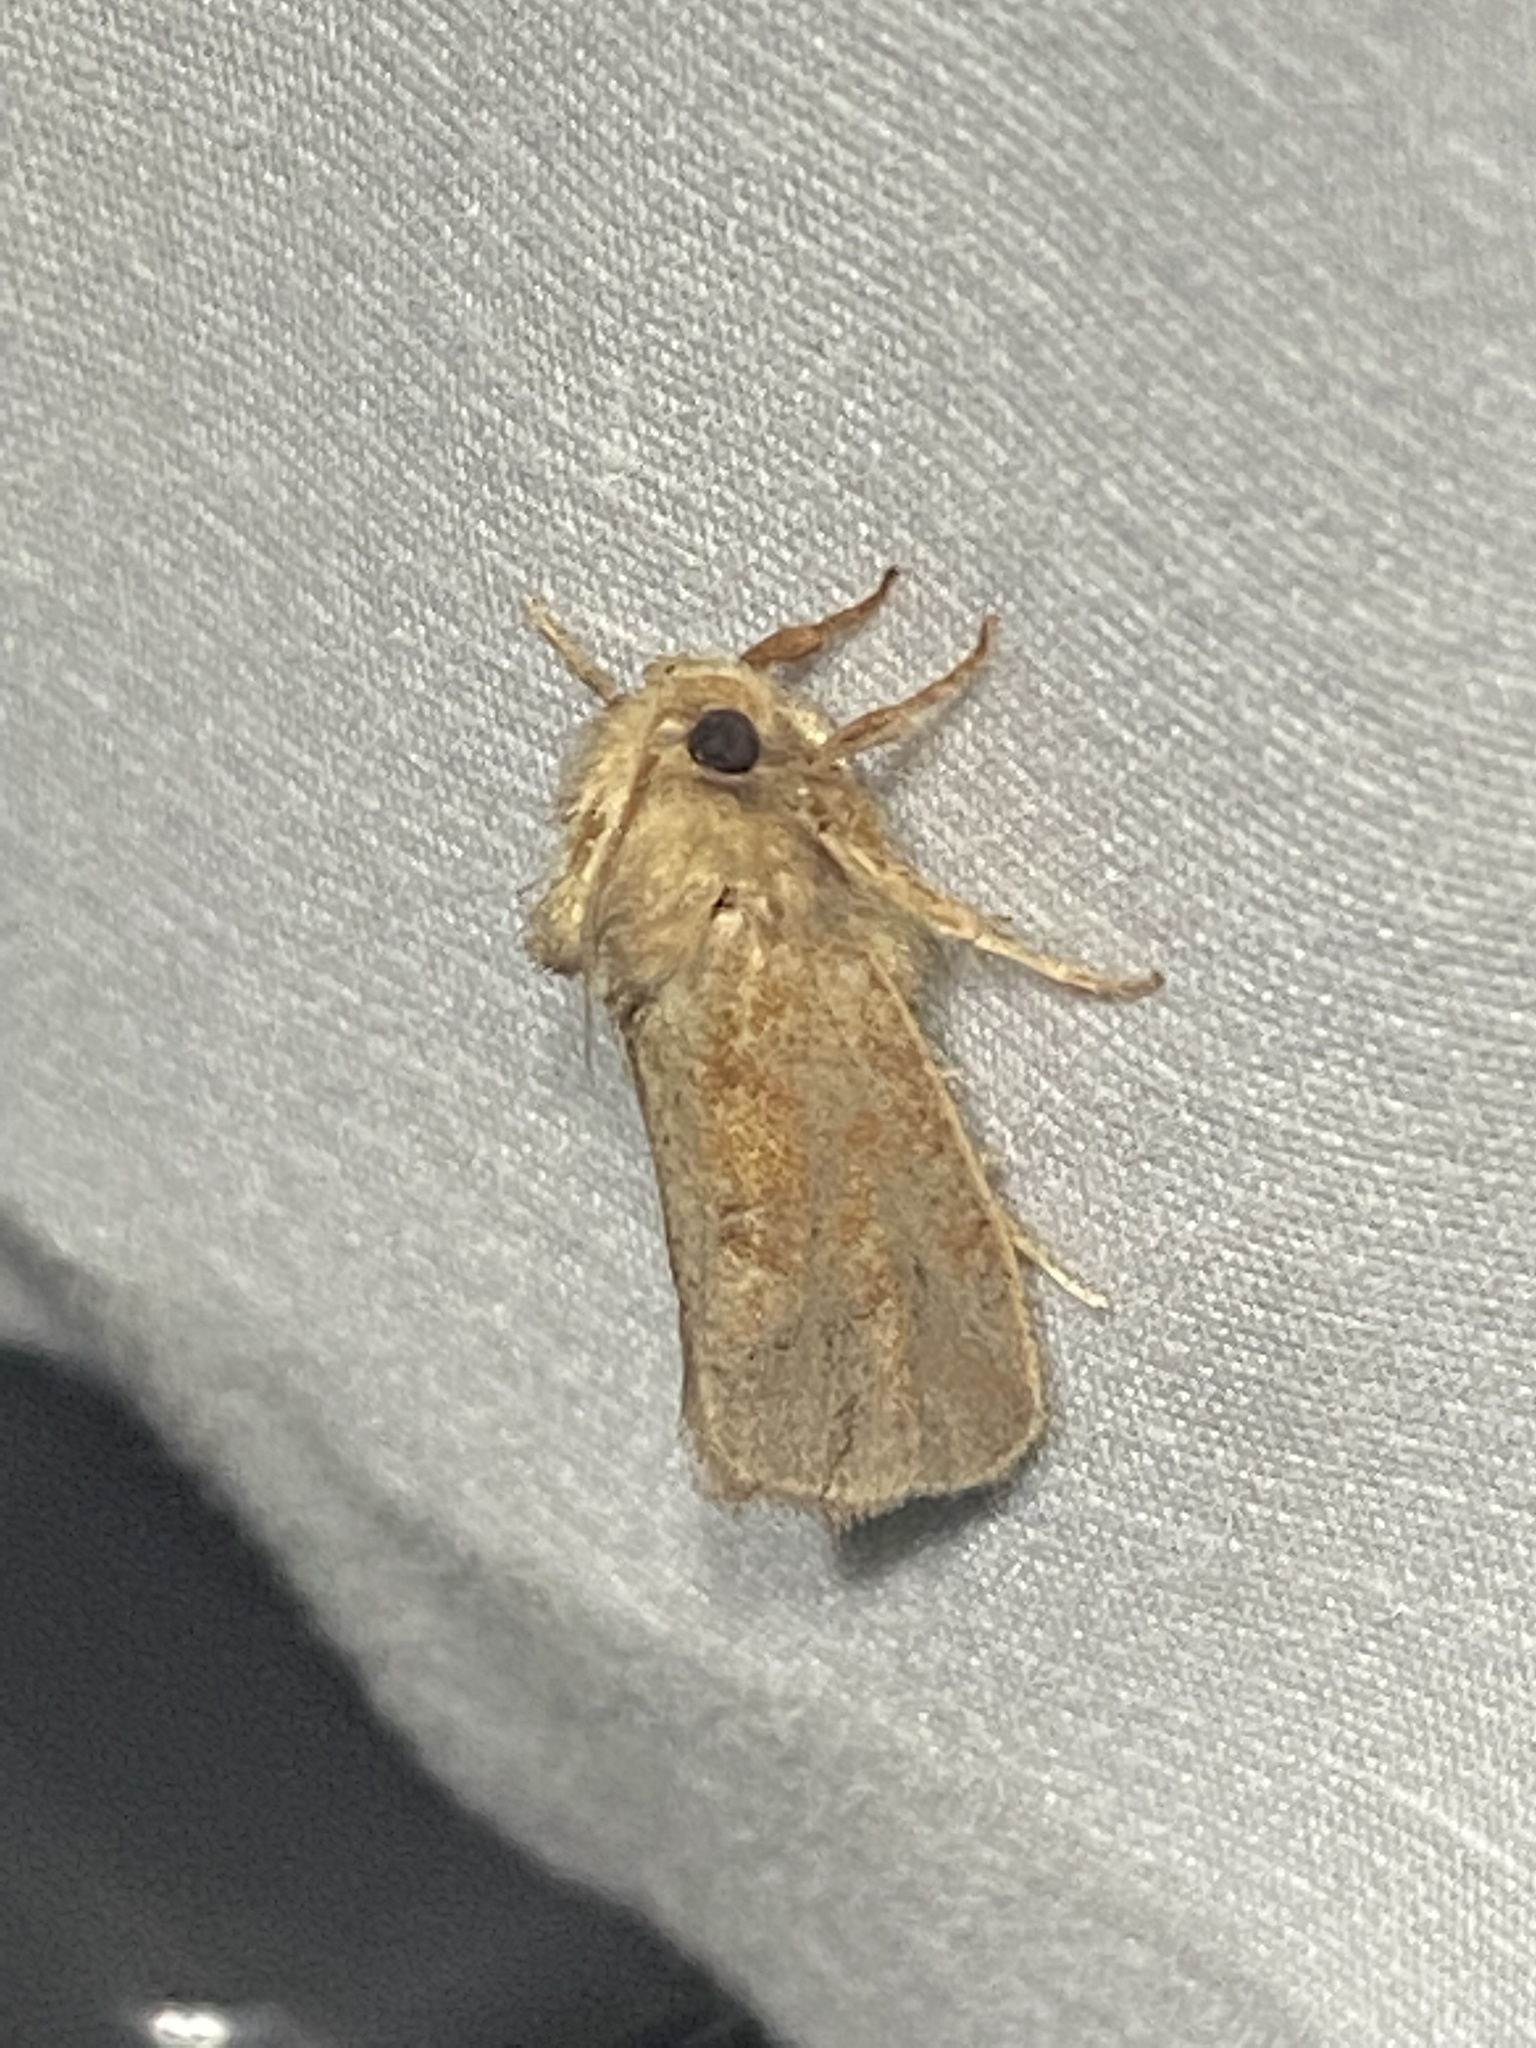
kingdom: Animalia
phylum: Arthropoda
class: Insecta
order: Lepidoptera
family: Tineidae
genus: Acrolophus
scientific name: Acrolophus plumifrontella
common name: Eastern grass tubeworm moth
